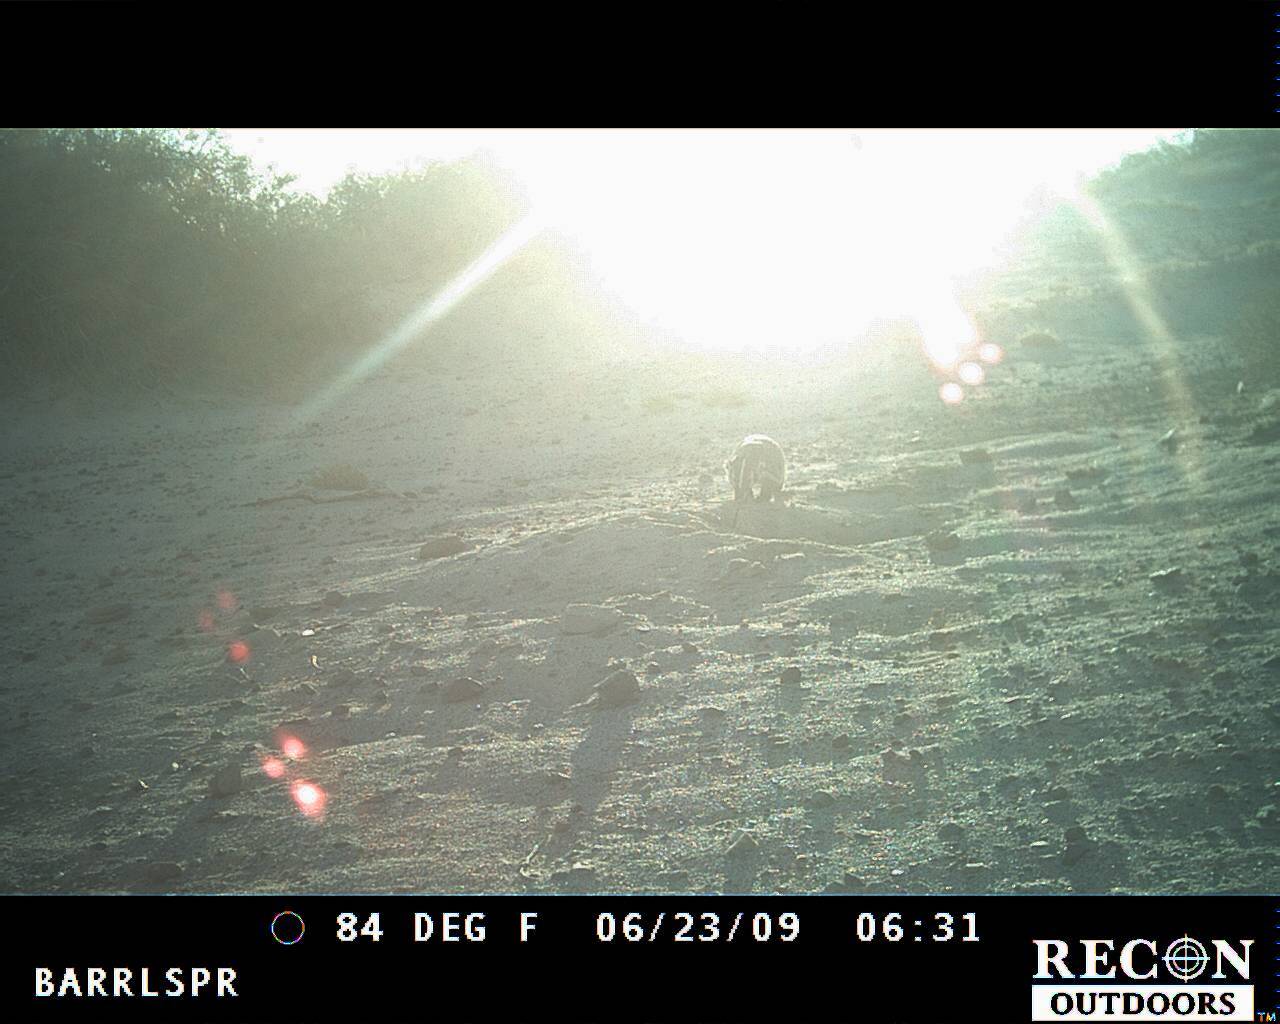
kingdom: Animalia
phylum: Chordata
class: Mammalia
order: Carnivora
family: Mustelidae
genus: Taxidea
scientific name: Taxidea taxus
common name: American badger
